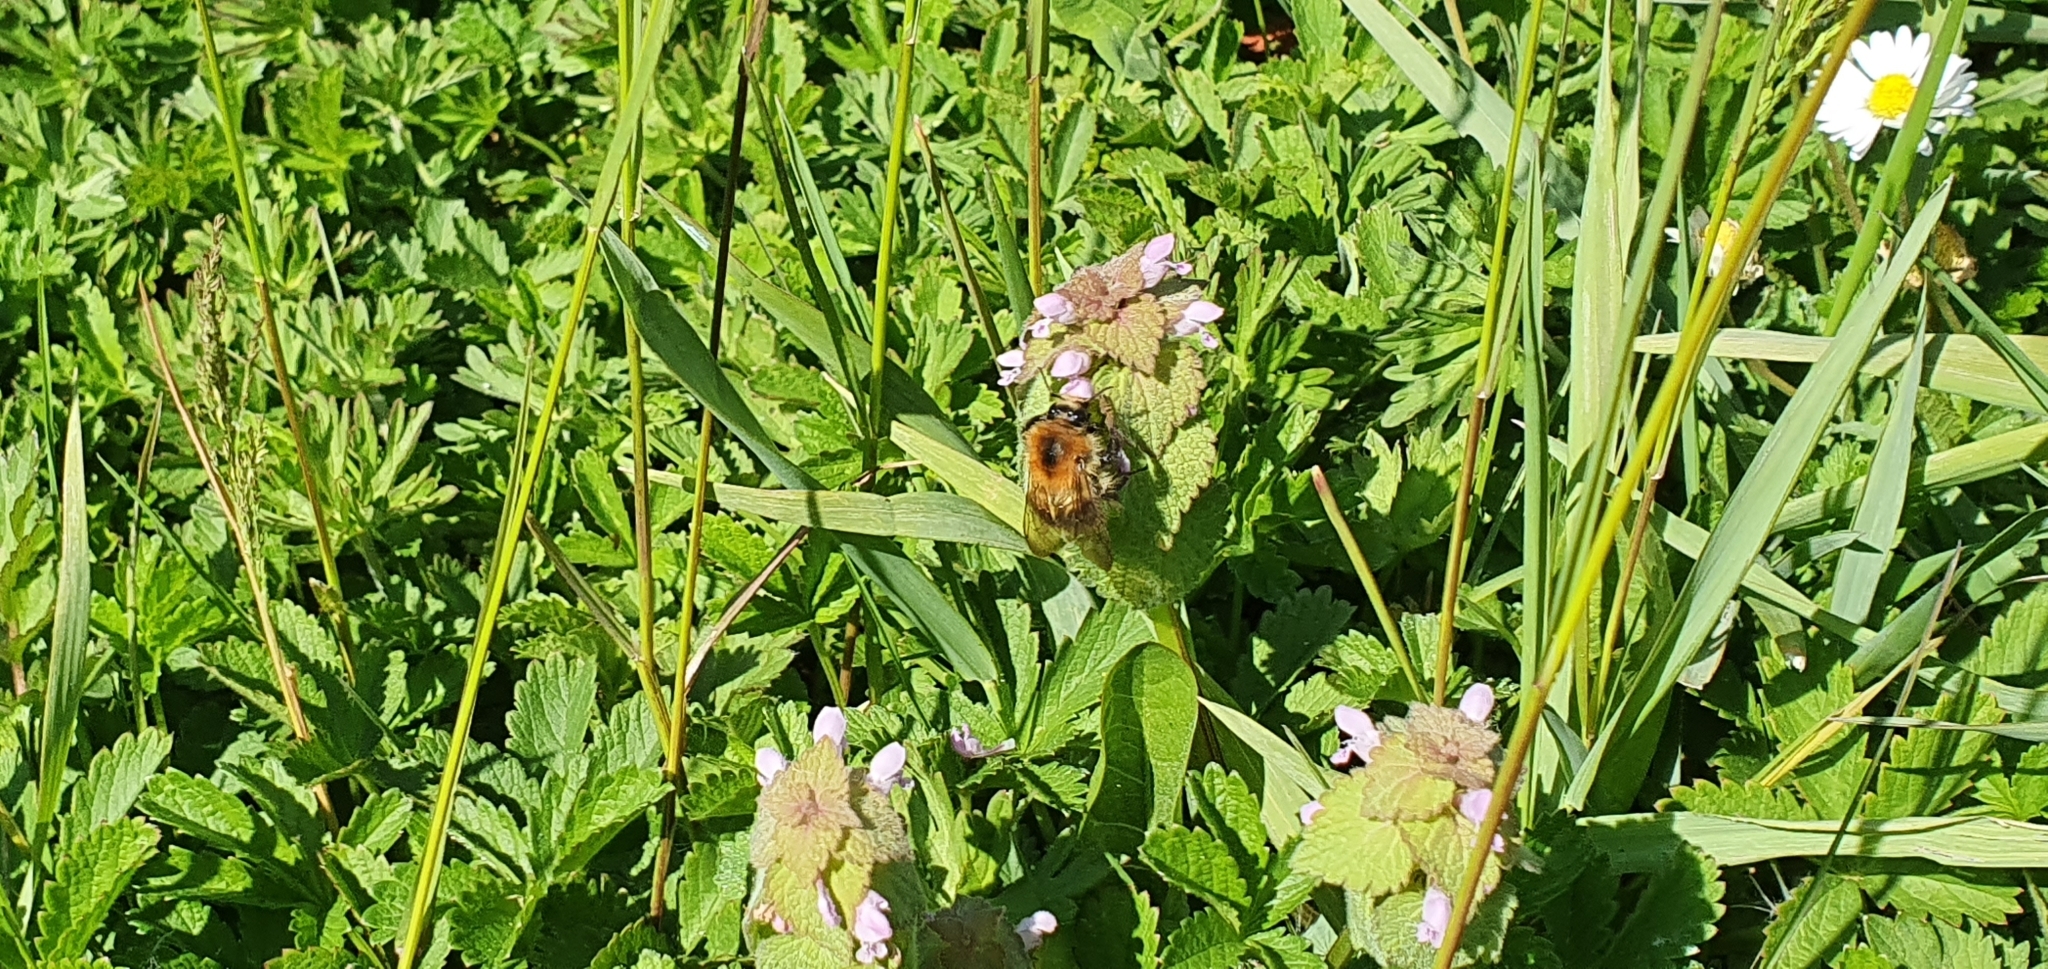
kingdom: Animalia
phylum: Arthropoda
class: Insecta
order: Hymenoptera
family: Apidae
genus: Bombus
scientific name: Bombus pascuorum
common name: Common carder bee
